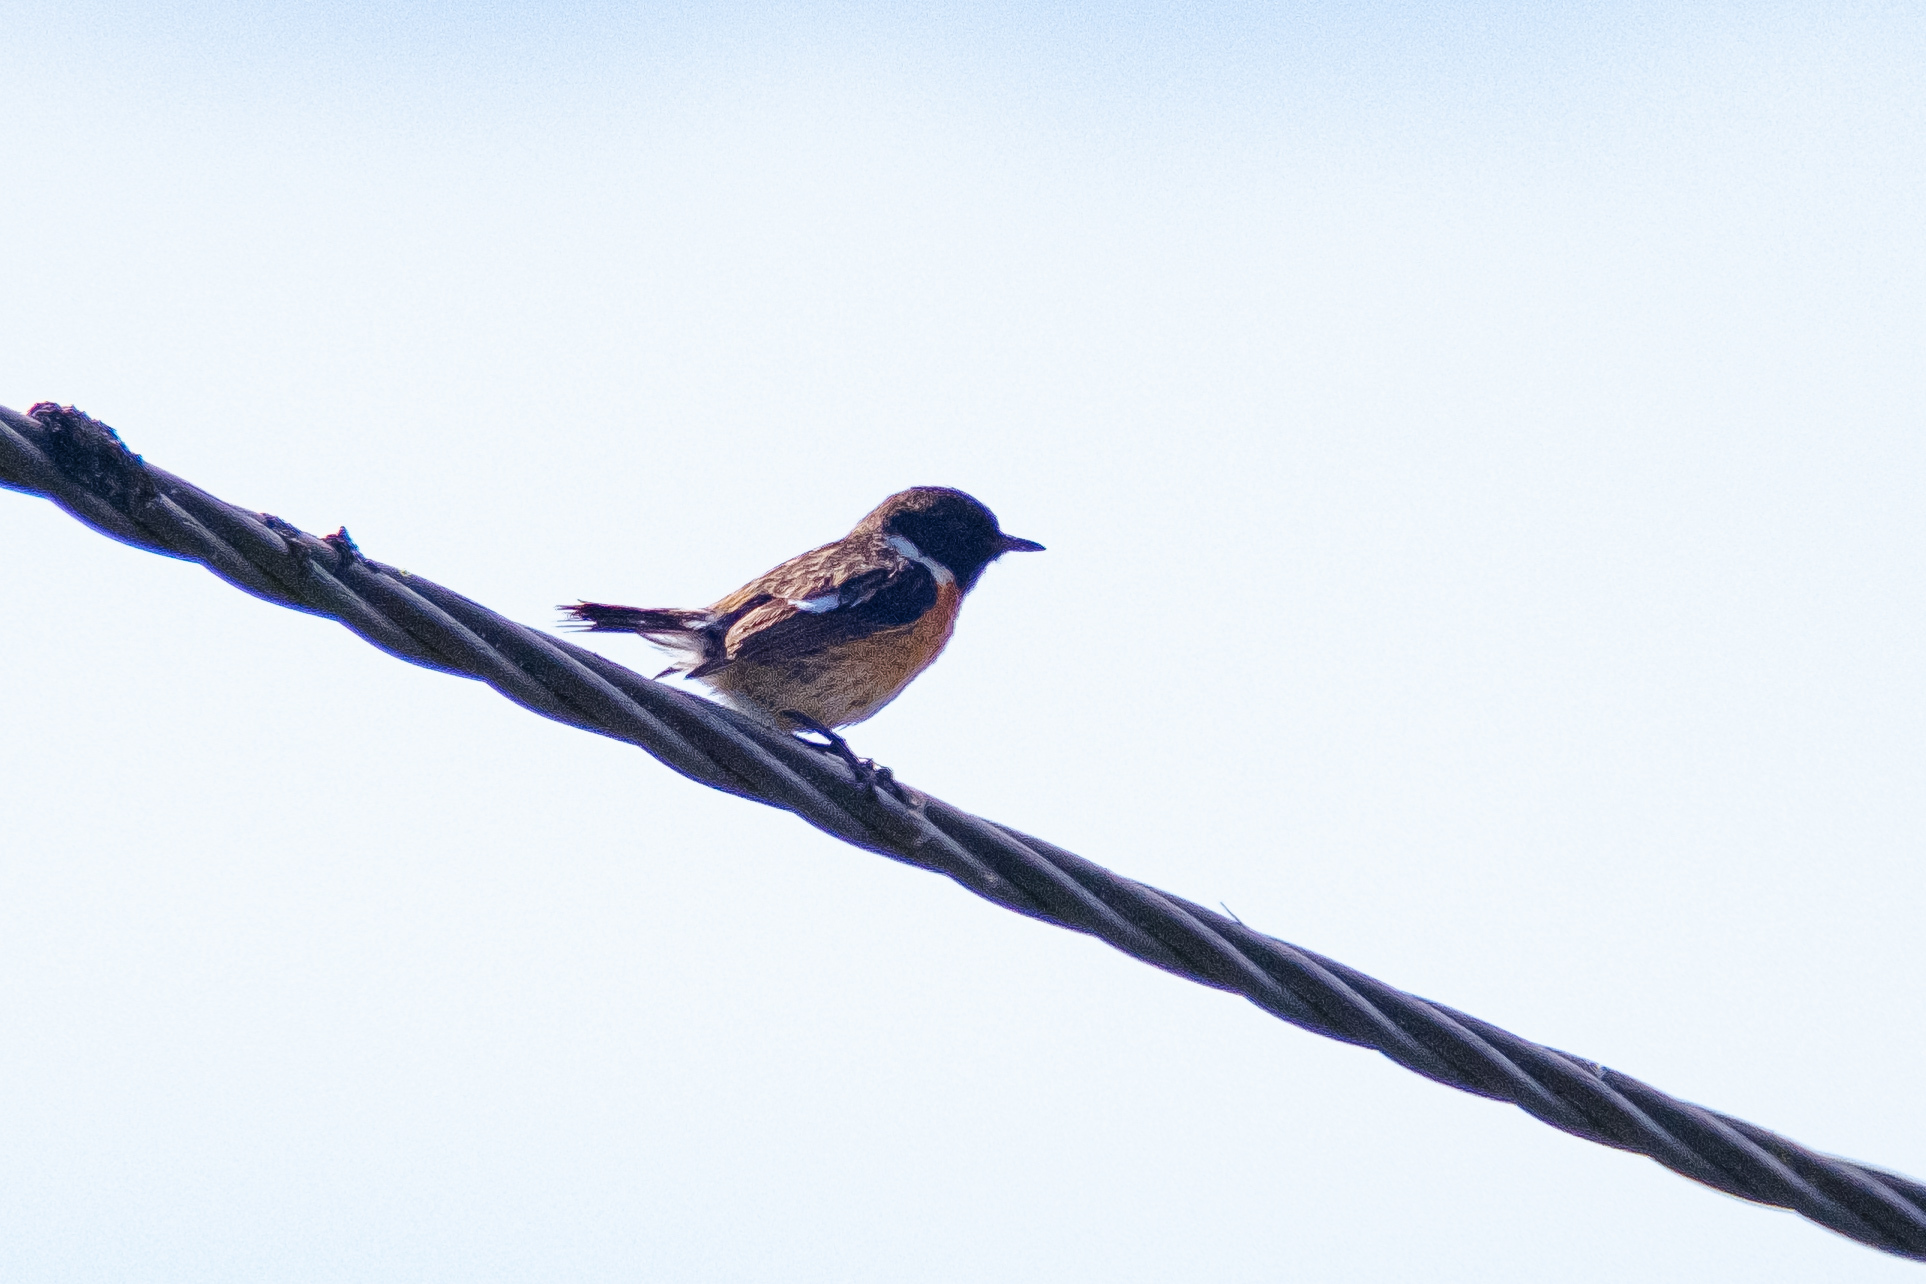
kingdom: Animalia
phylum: Chordata
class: Aves
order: Passeriformes
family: Muscicapidae
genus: Saxicola
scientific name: Saxicola rubicola
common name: European stonechat
